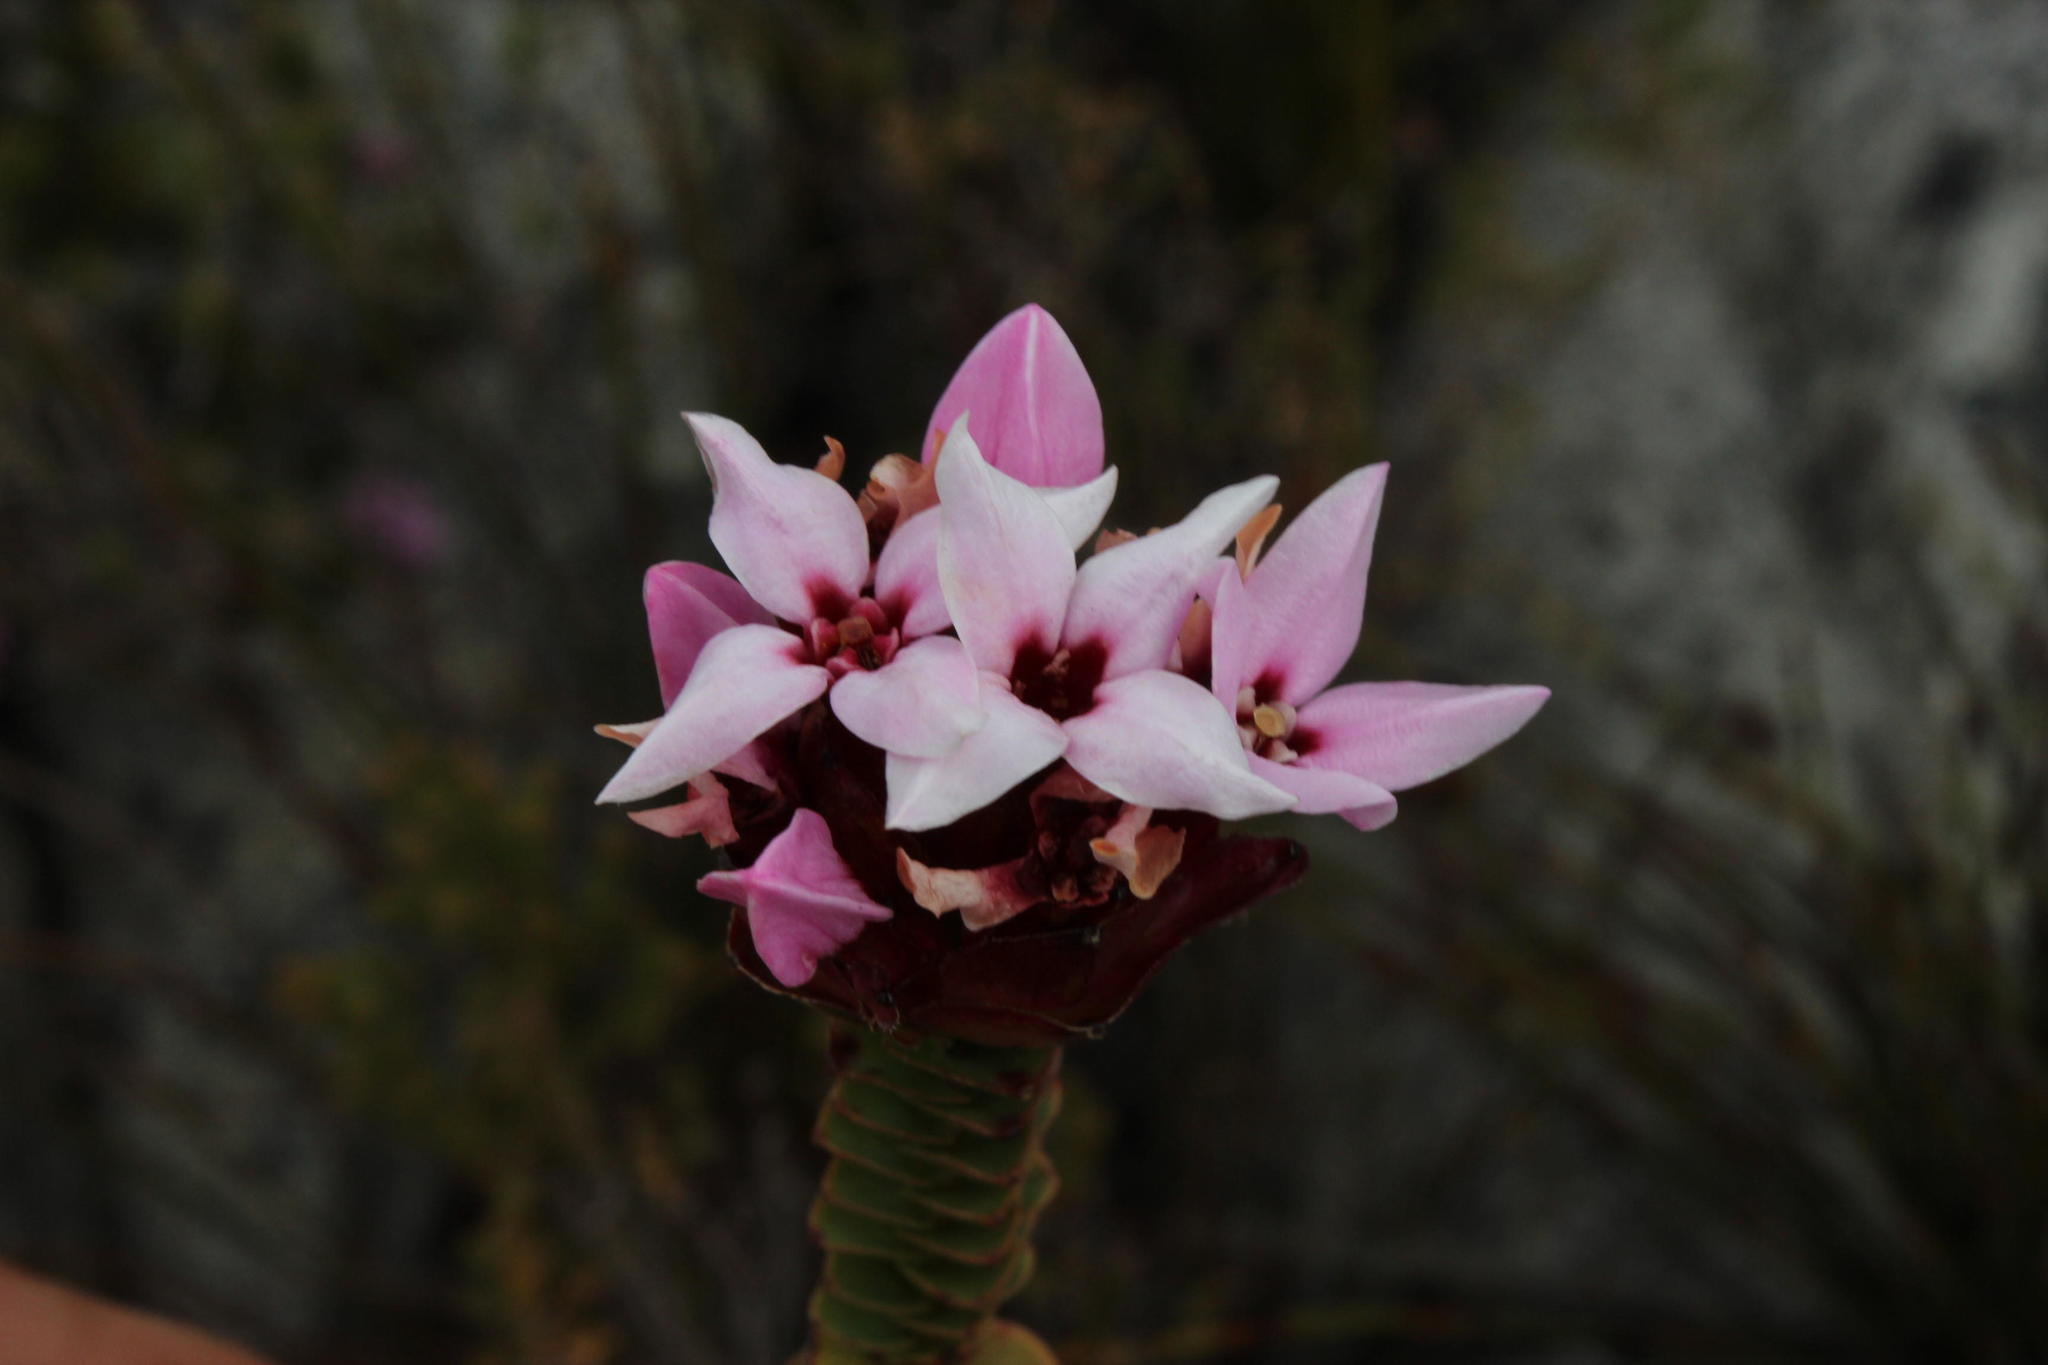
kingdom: Plantae
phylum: Tracheophyta
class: Magnoliopsida
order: Myrtales
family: Penaeaceae
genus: Sonderothamnus
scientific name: Sonderothamnus speciosus
